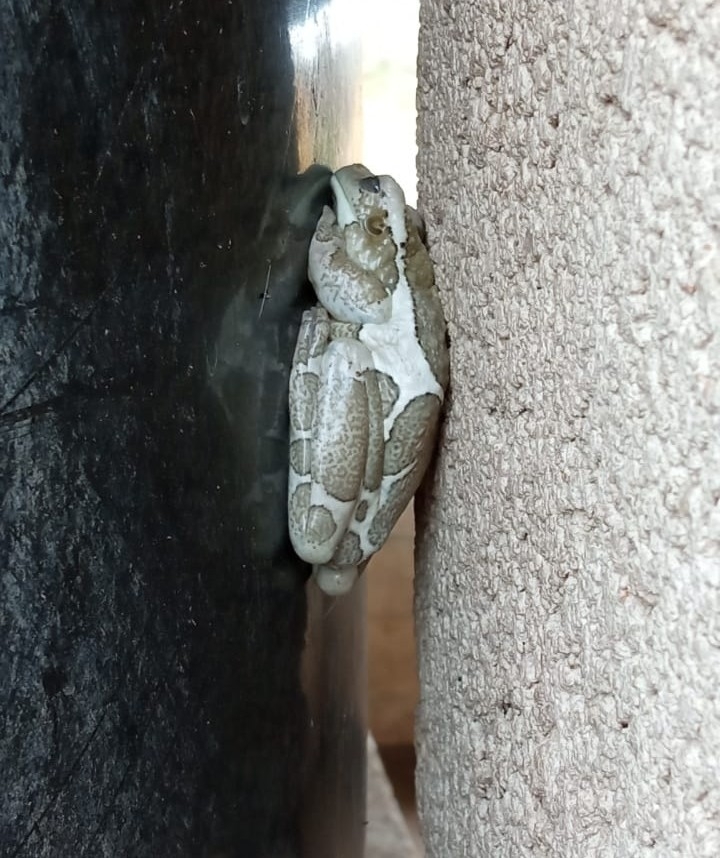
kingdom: Animalia
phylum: Chordata
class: Amphibia
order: Anura
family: Hylidae
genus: Trachycephalus
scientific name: Trachycephalus vermiculatus
